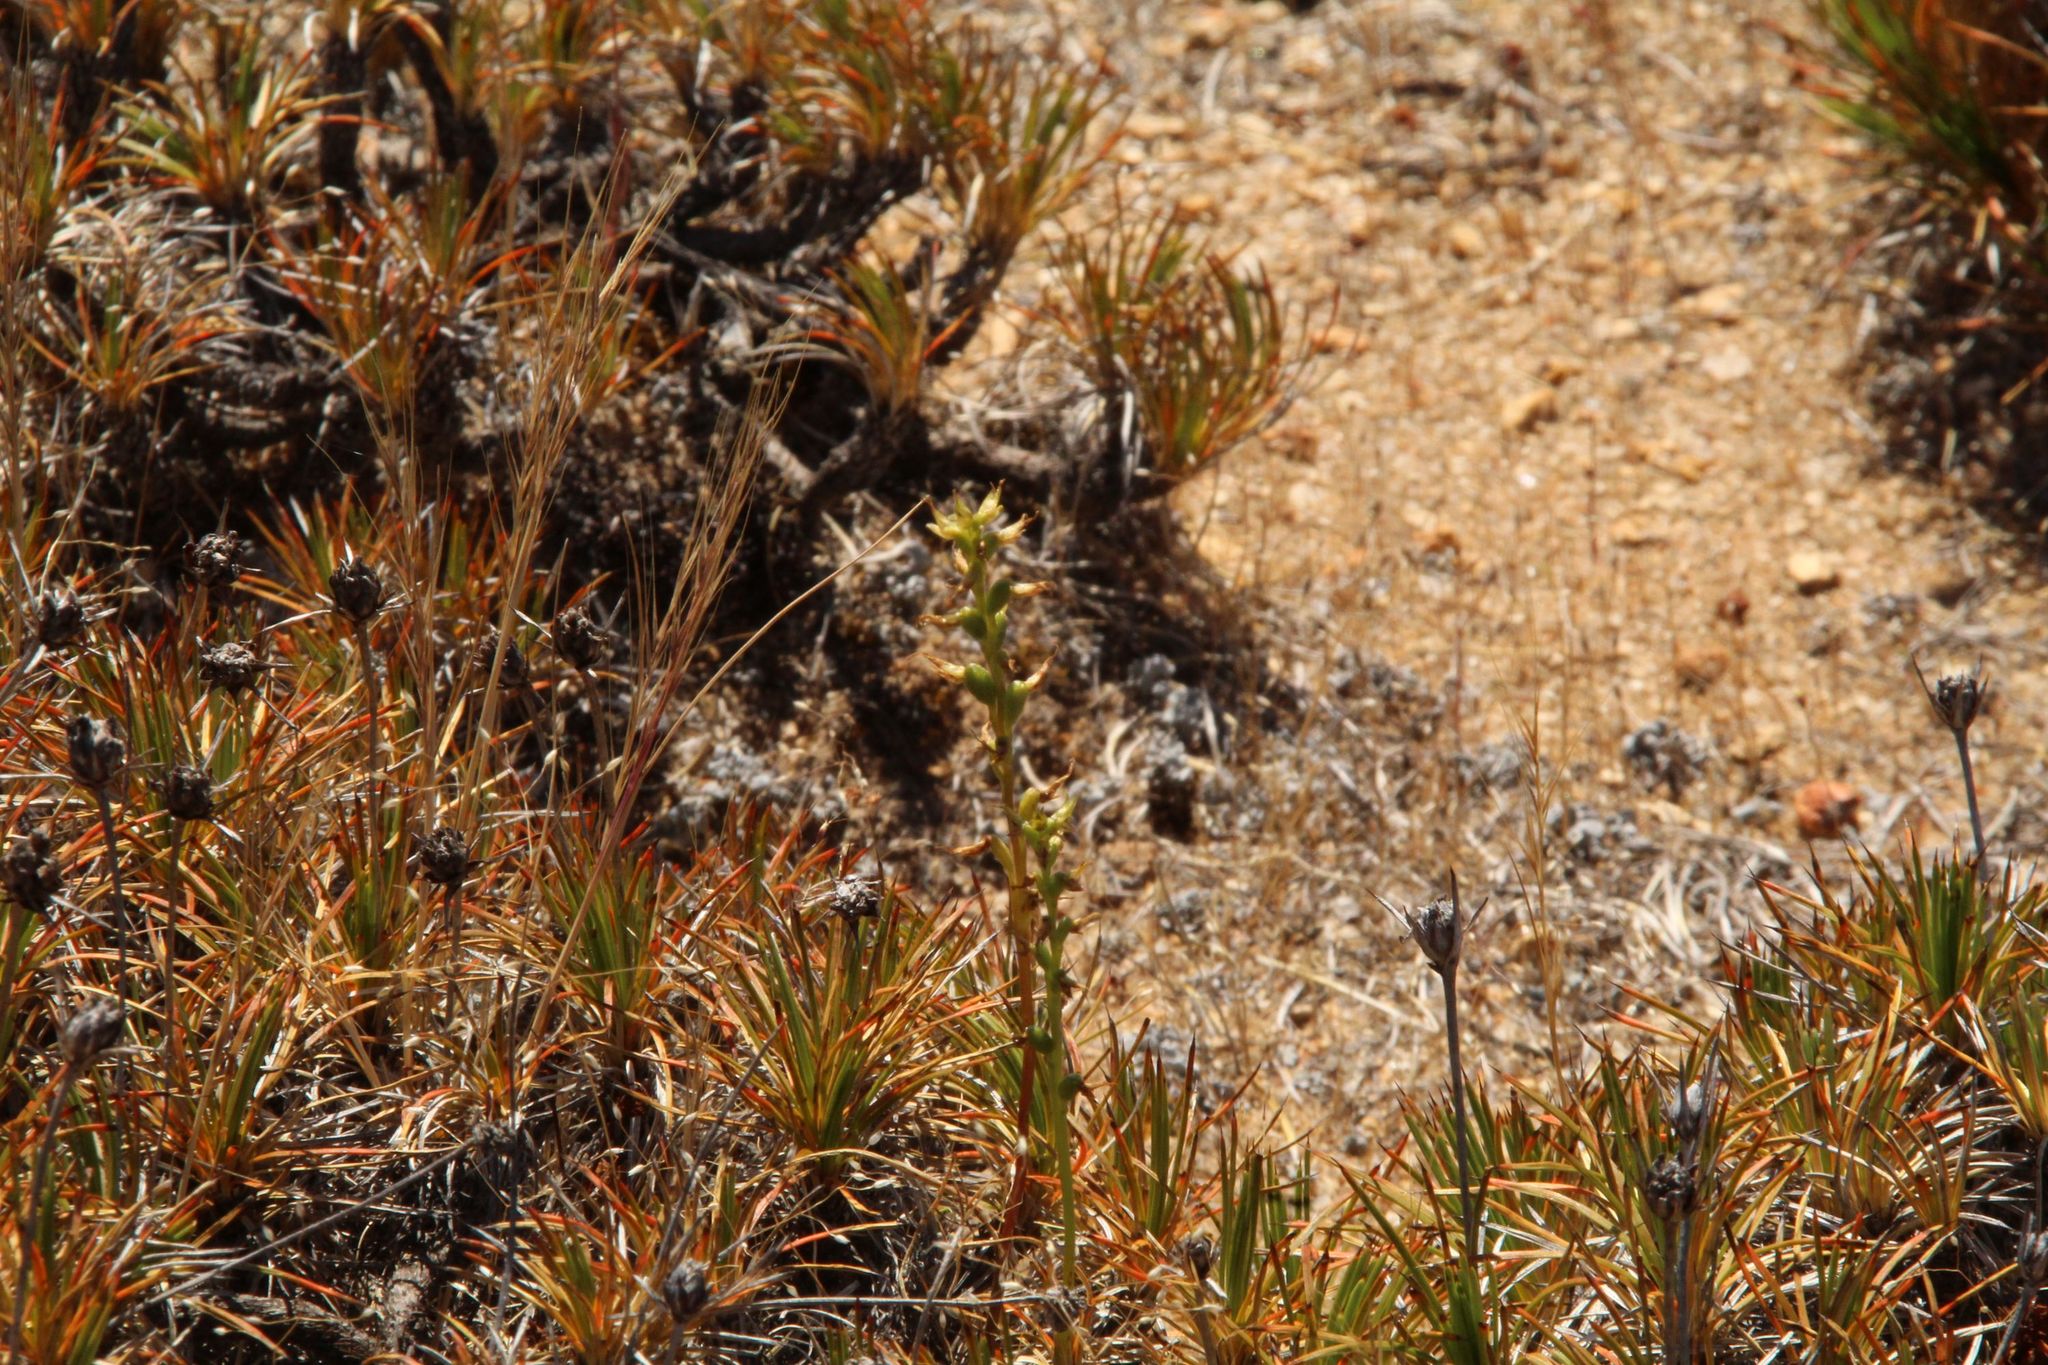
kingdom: Plantae
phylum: Tracheophyta
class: Liliopsida
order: Asparagales
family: Orchidaceae
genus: Prasophyllum
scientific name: Prasophyllum gracile
